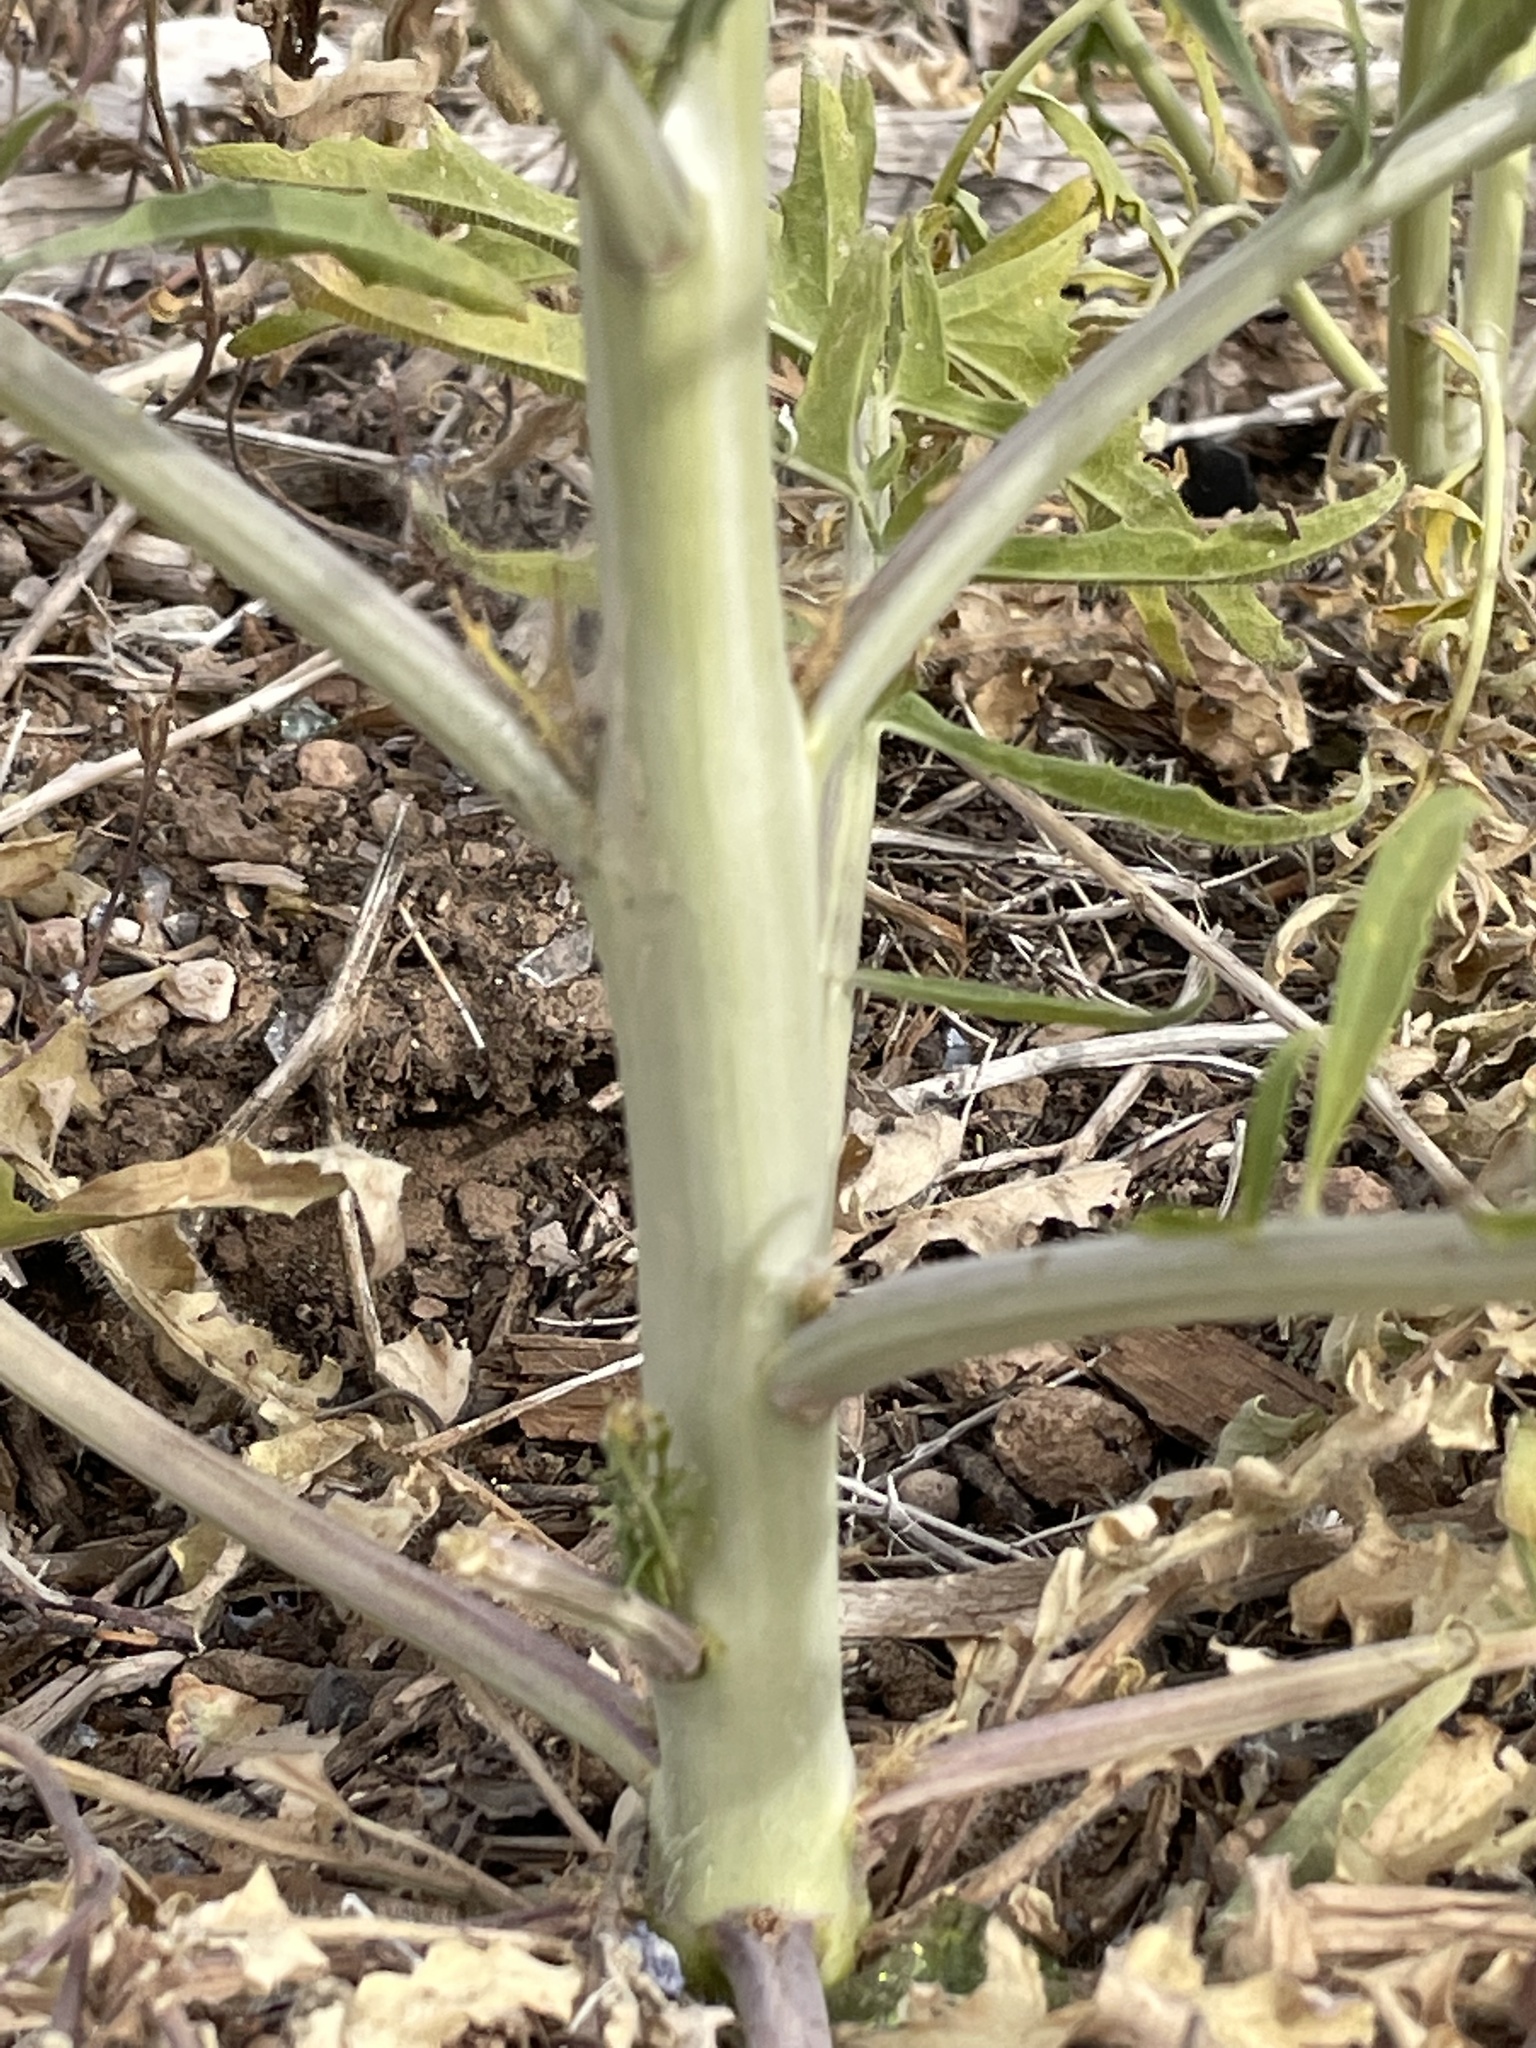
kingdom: Plantae
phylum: Tracheophyta
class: Magnoliopsida
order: Brassicales
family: Brassicaceae
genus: Sisymbrium
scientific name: Sisymbrium altissimum
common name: Tall rocket
